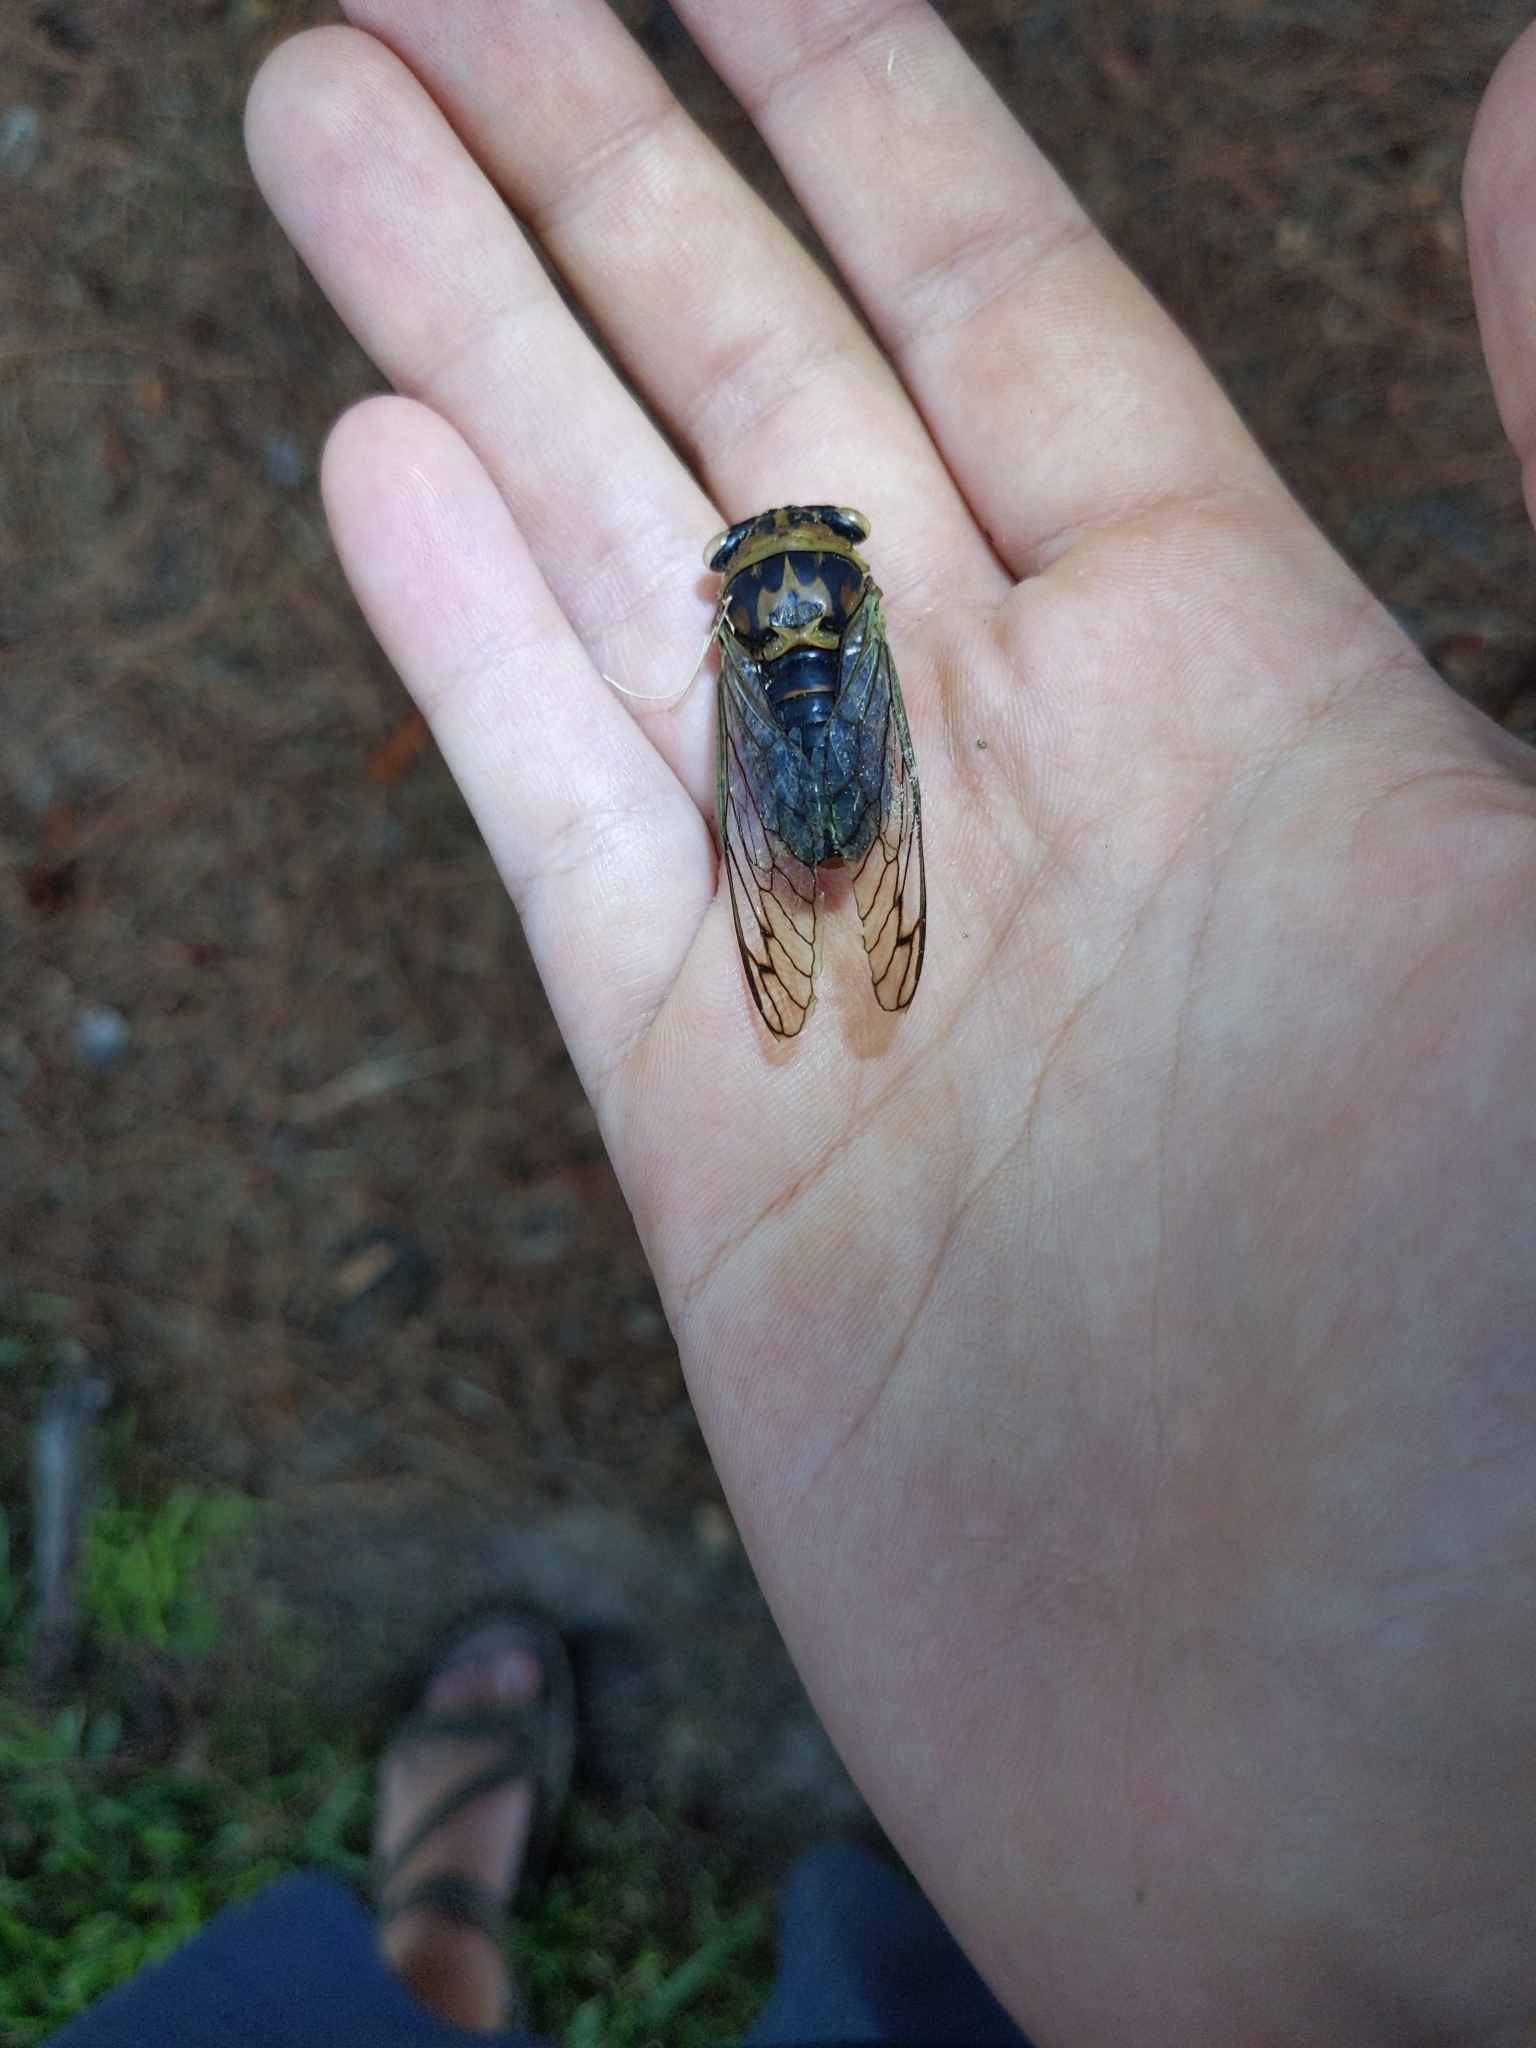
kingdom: Animalia
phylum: Arthropoda
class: Insecta
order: Hemiptera
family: Cicadidae
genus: Neotibicen
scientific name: Neotibicen davisi
